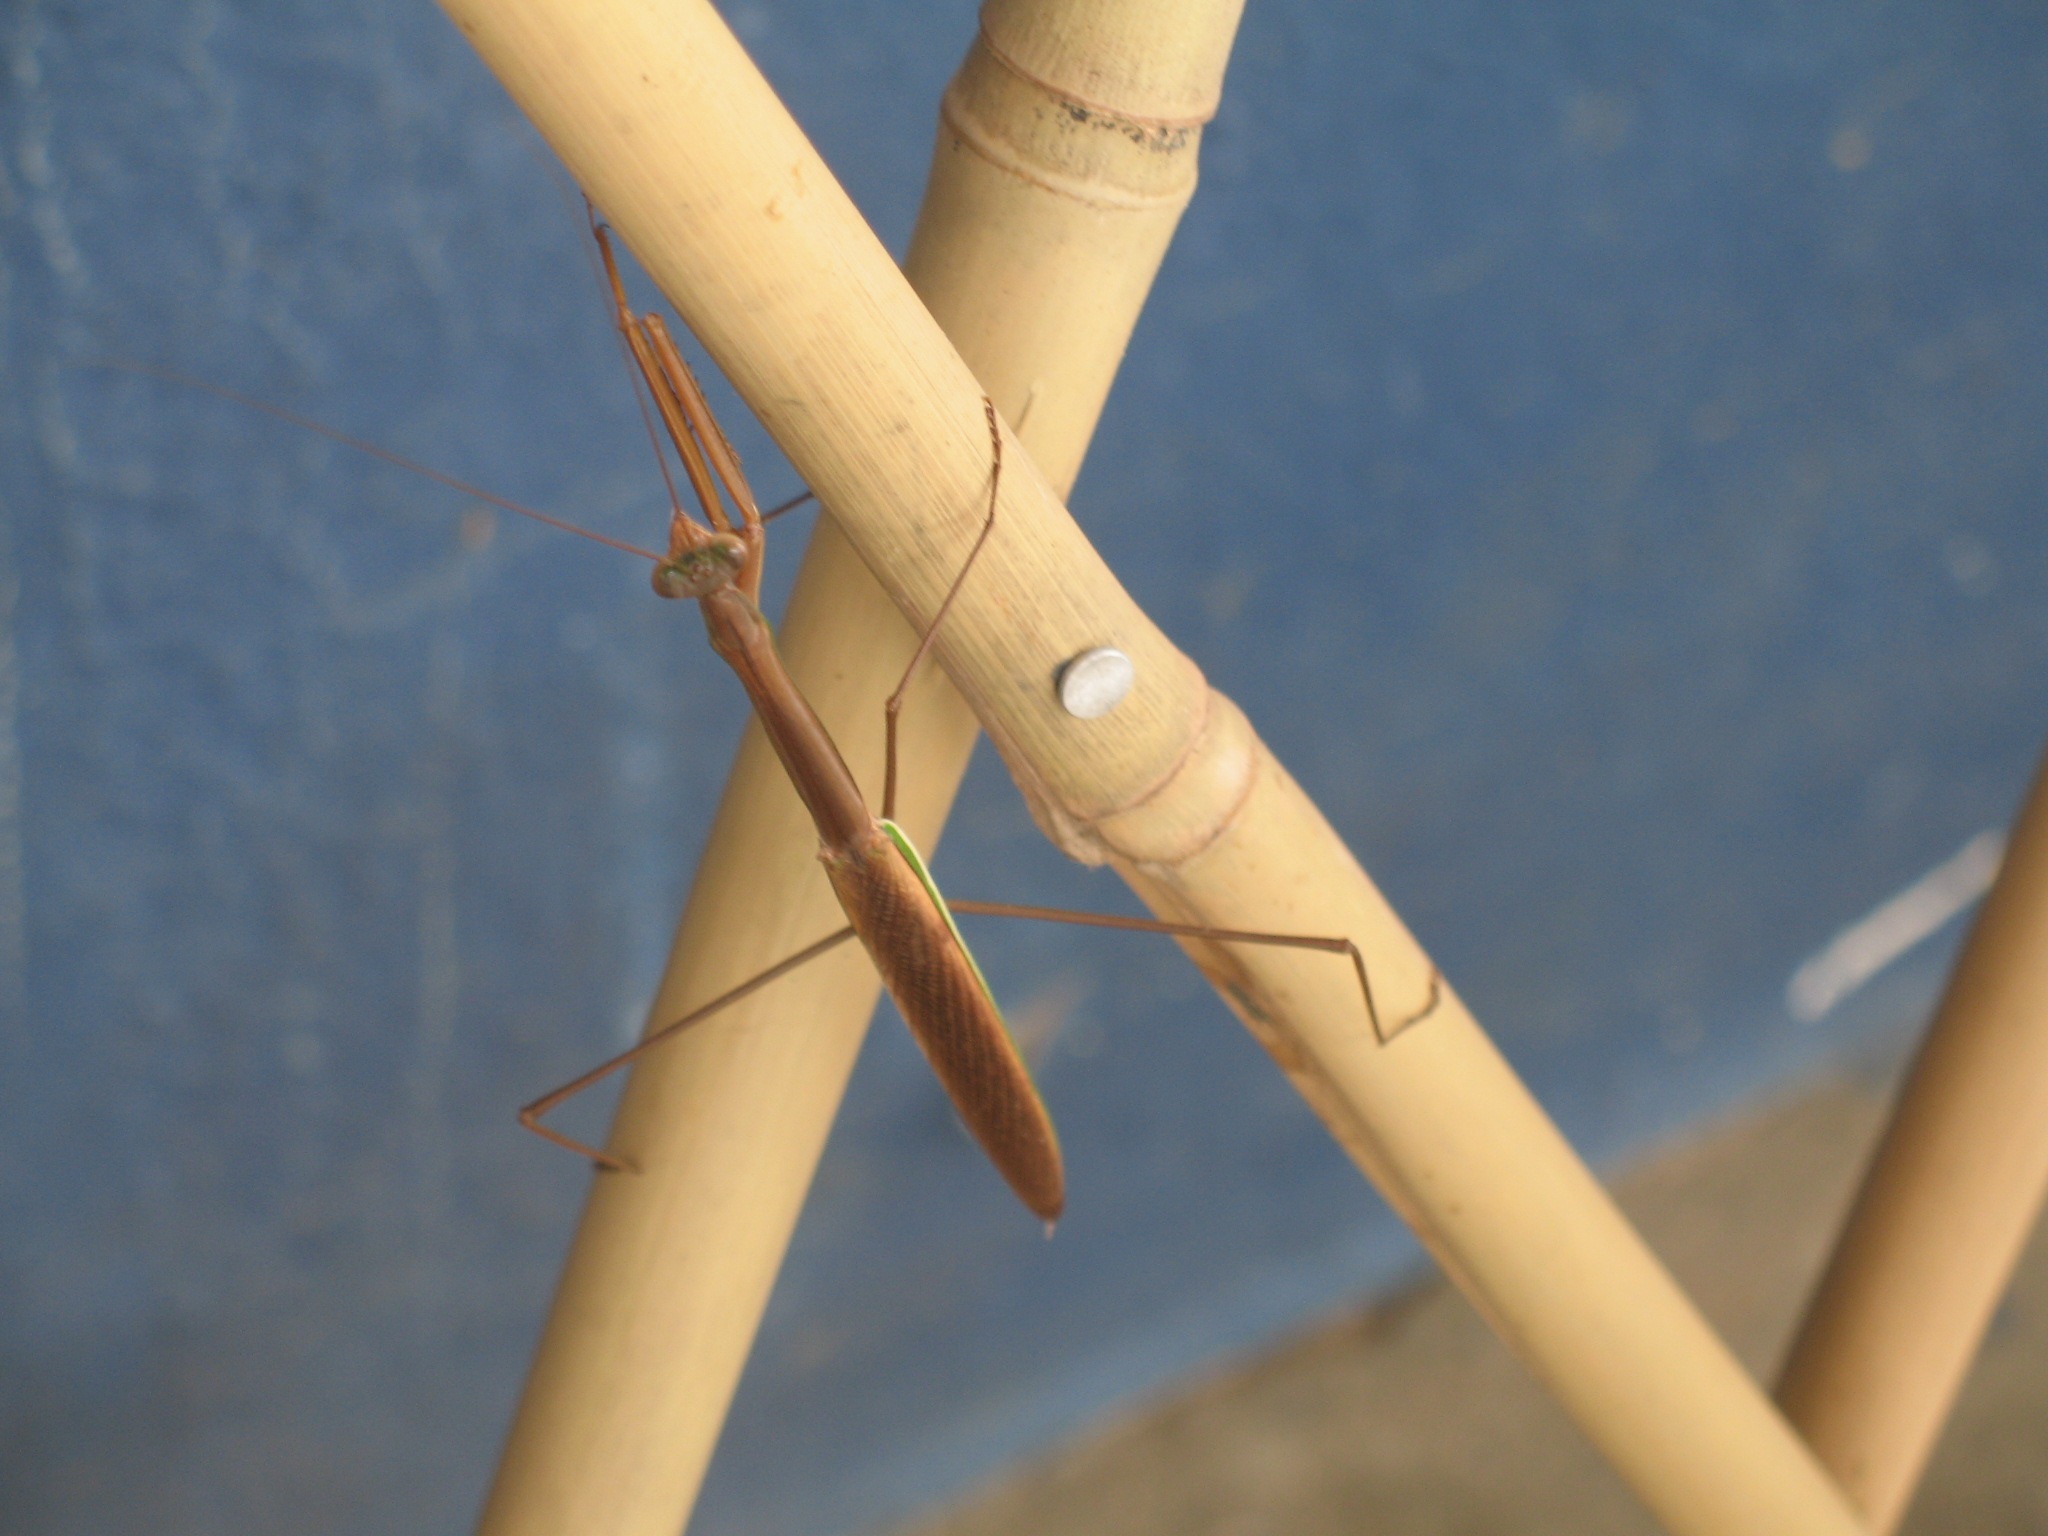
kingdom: Animalia
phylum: Arthropoda
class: Insecta
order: Mantodea
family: Mantidae
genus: Tenodera
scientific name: Tenodera superstitiosa
